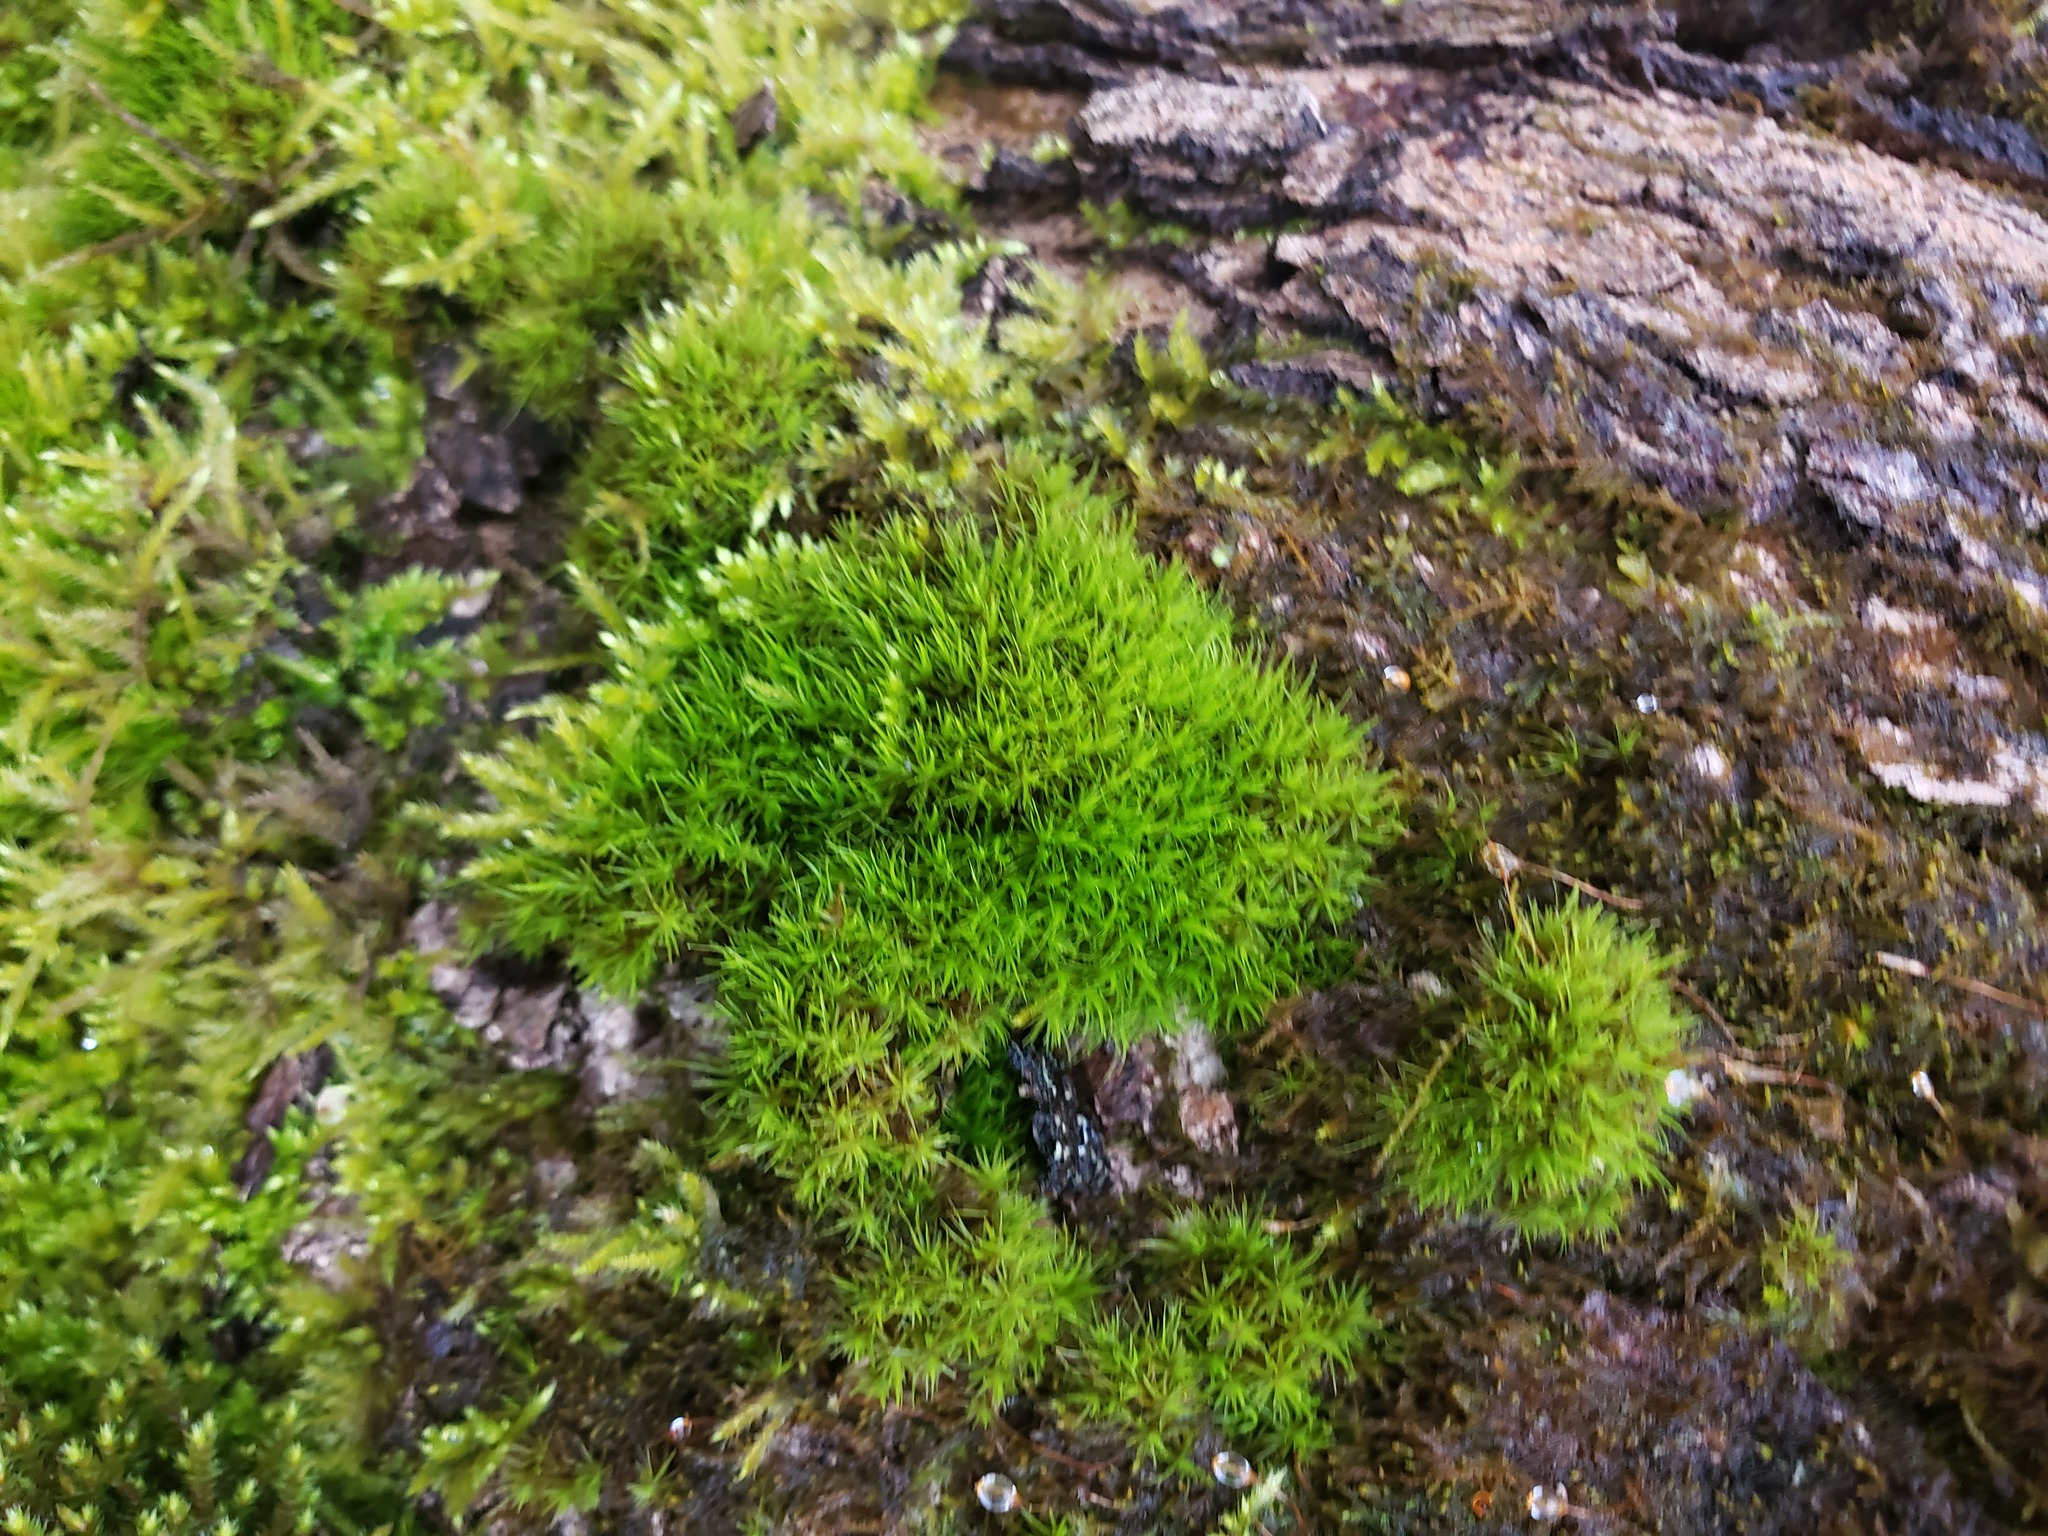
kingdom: Plantae
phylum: Bryophyta
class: Bryopsida
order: Dicranales
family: Dicranaceae
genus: Dicranum
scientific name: Dicranum viride
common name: Green broom moss
